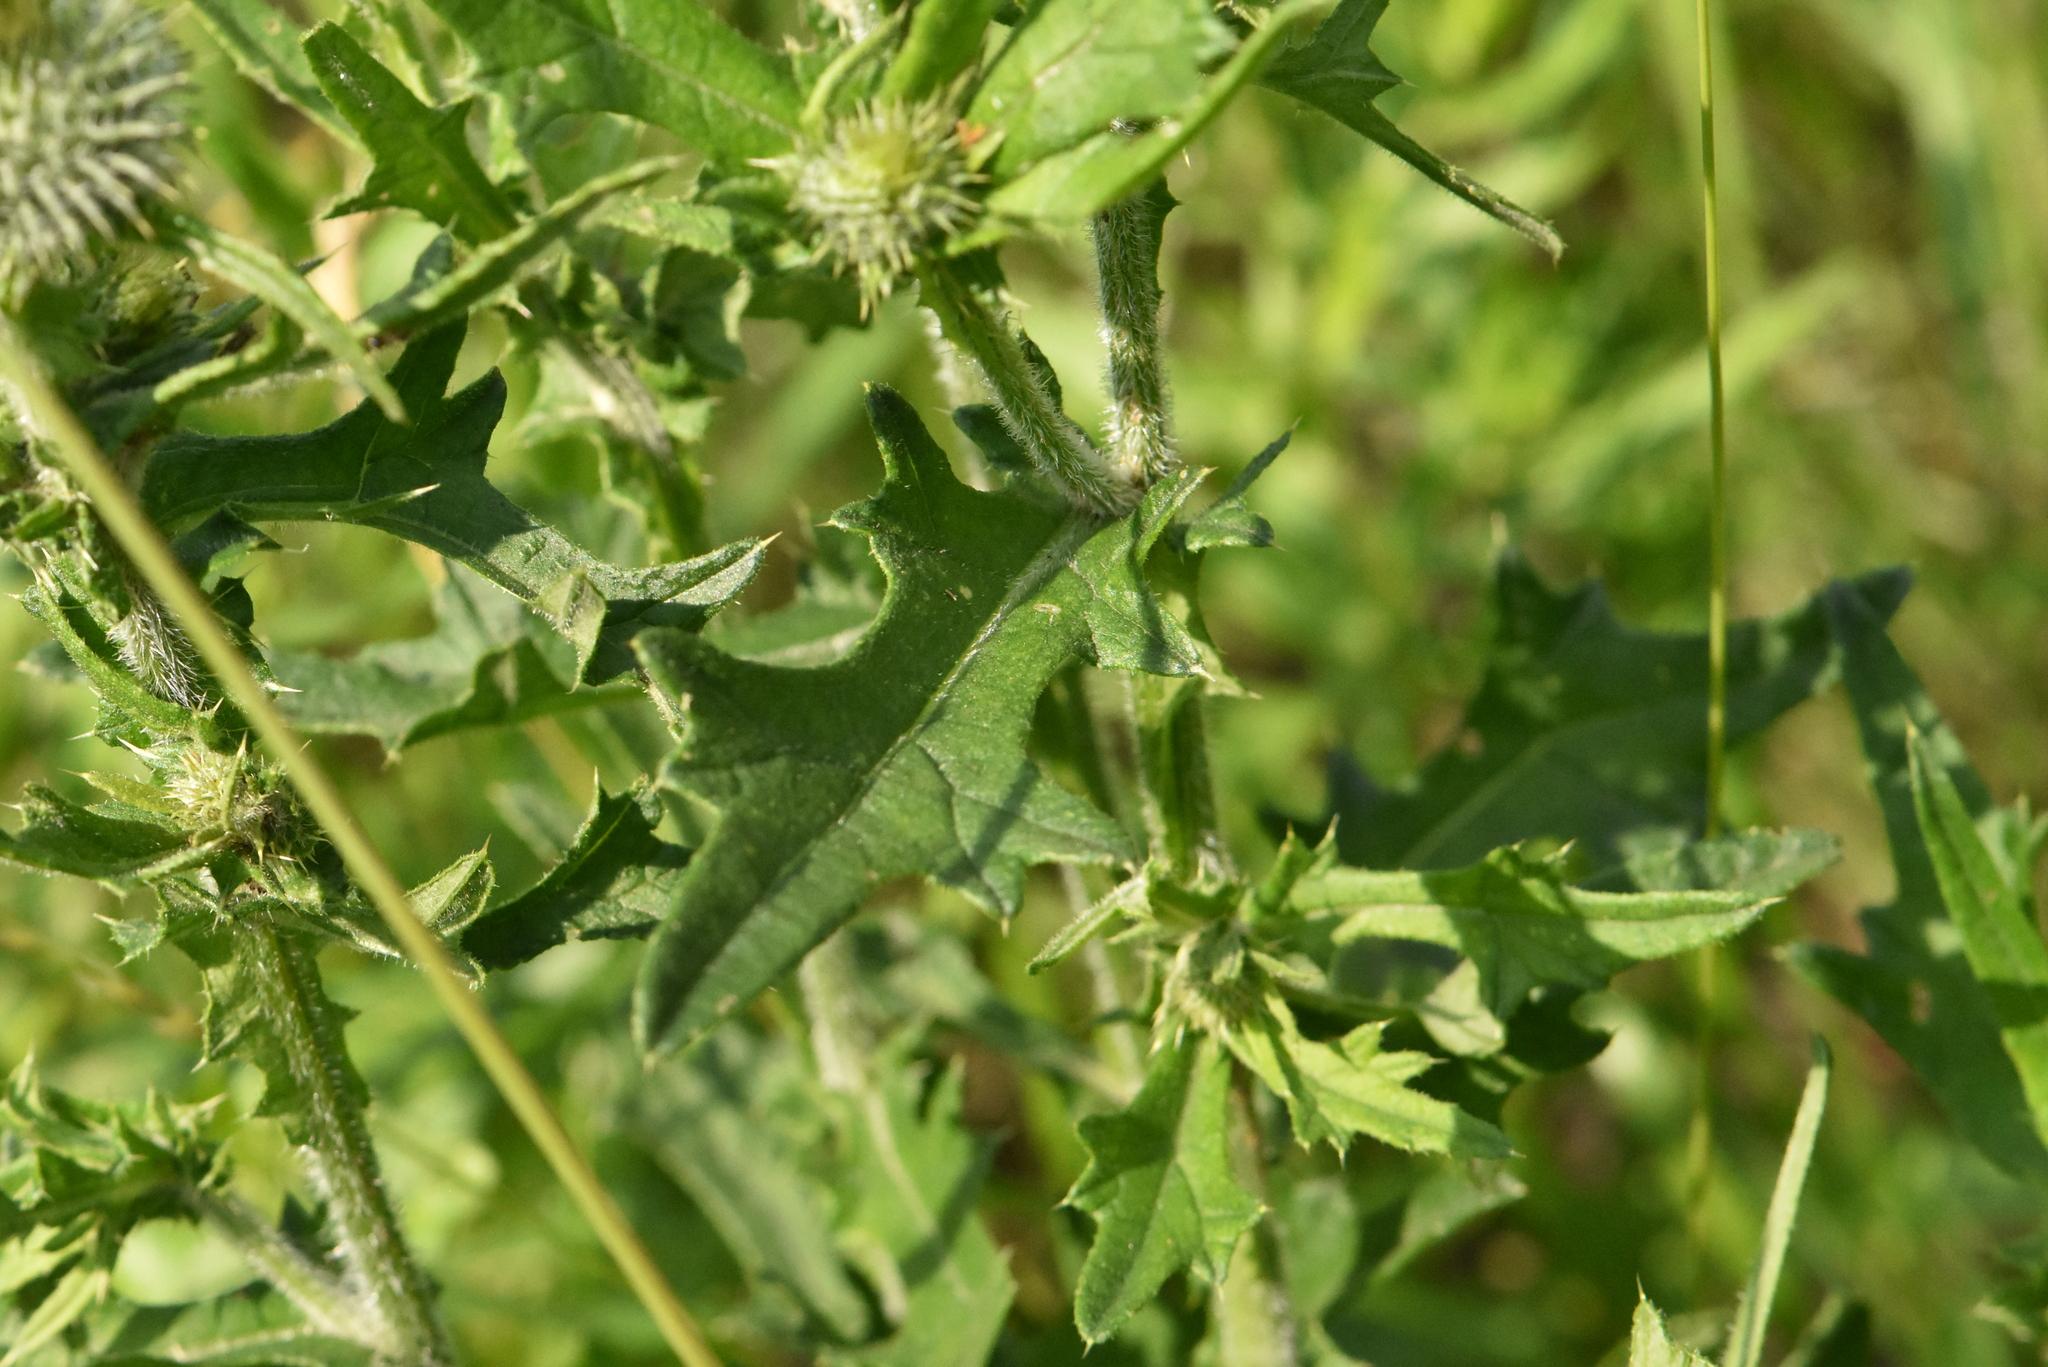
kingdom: Plantae
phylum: Tracheophyta
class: Magnoliopsida
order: Asterales
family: Asteraceae
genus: Cirsium
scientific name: Cirsium vulgare
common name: Bull thistle
